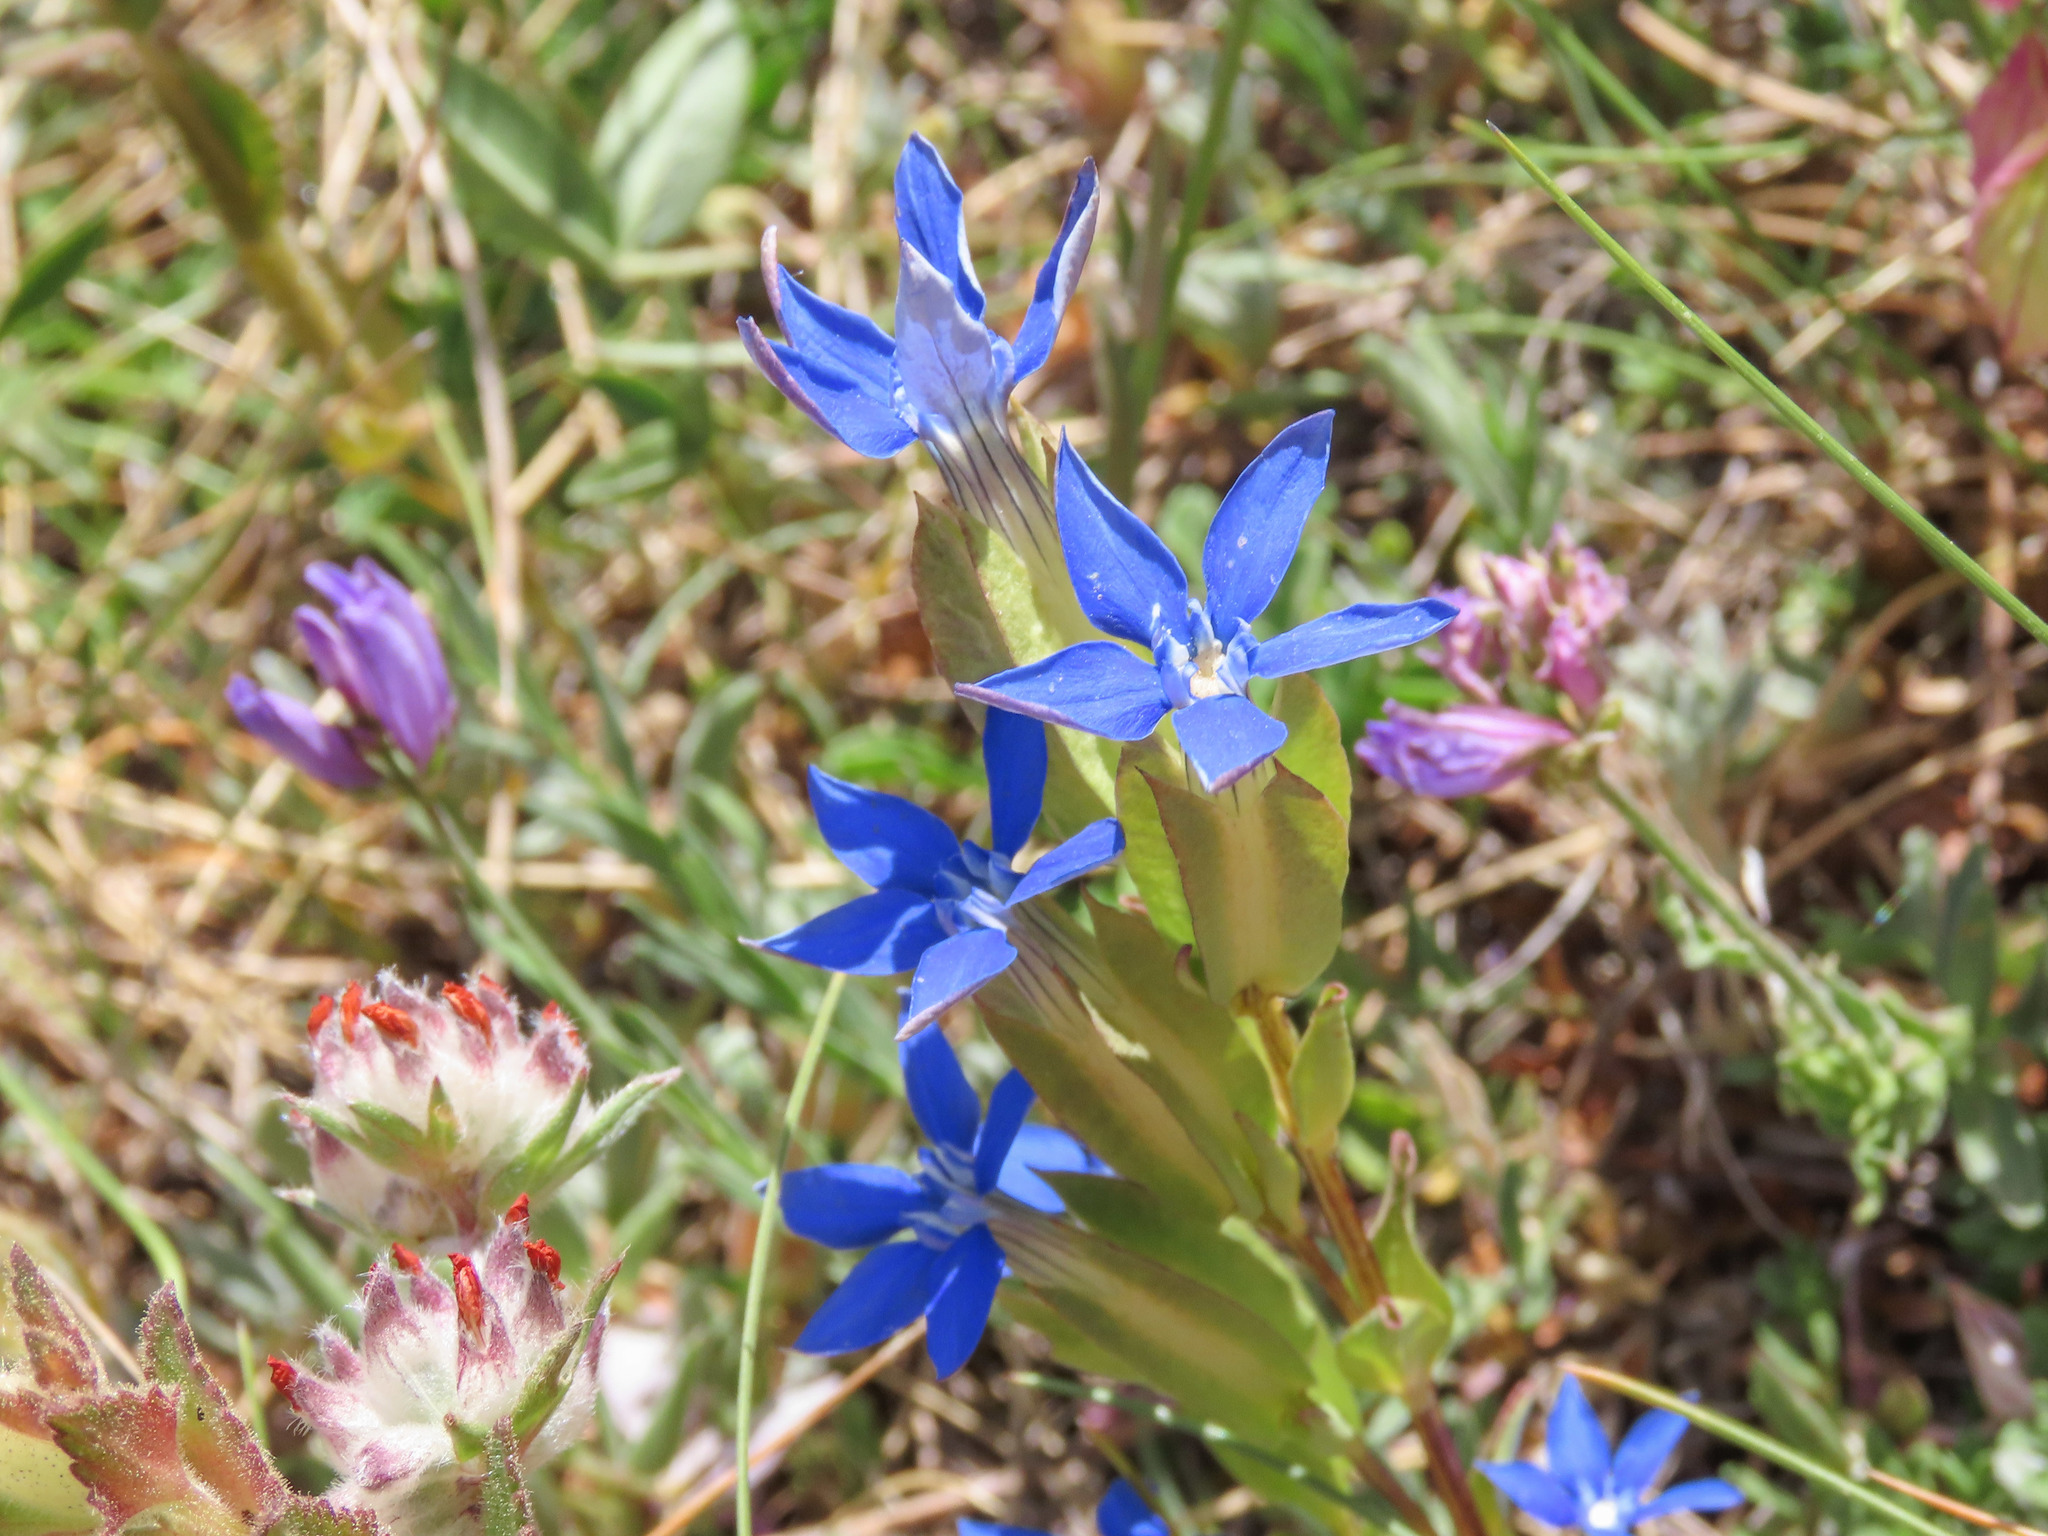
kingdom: Plantae
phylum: Tracheophyta
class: Magnoliopsida
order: Gentianales
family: Gentianaceae
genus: Gentiana
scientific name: Gentiana utriculosa
